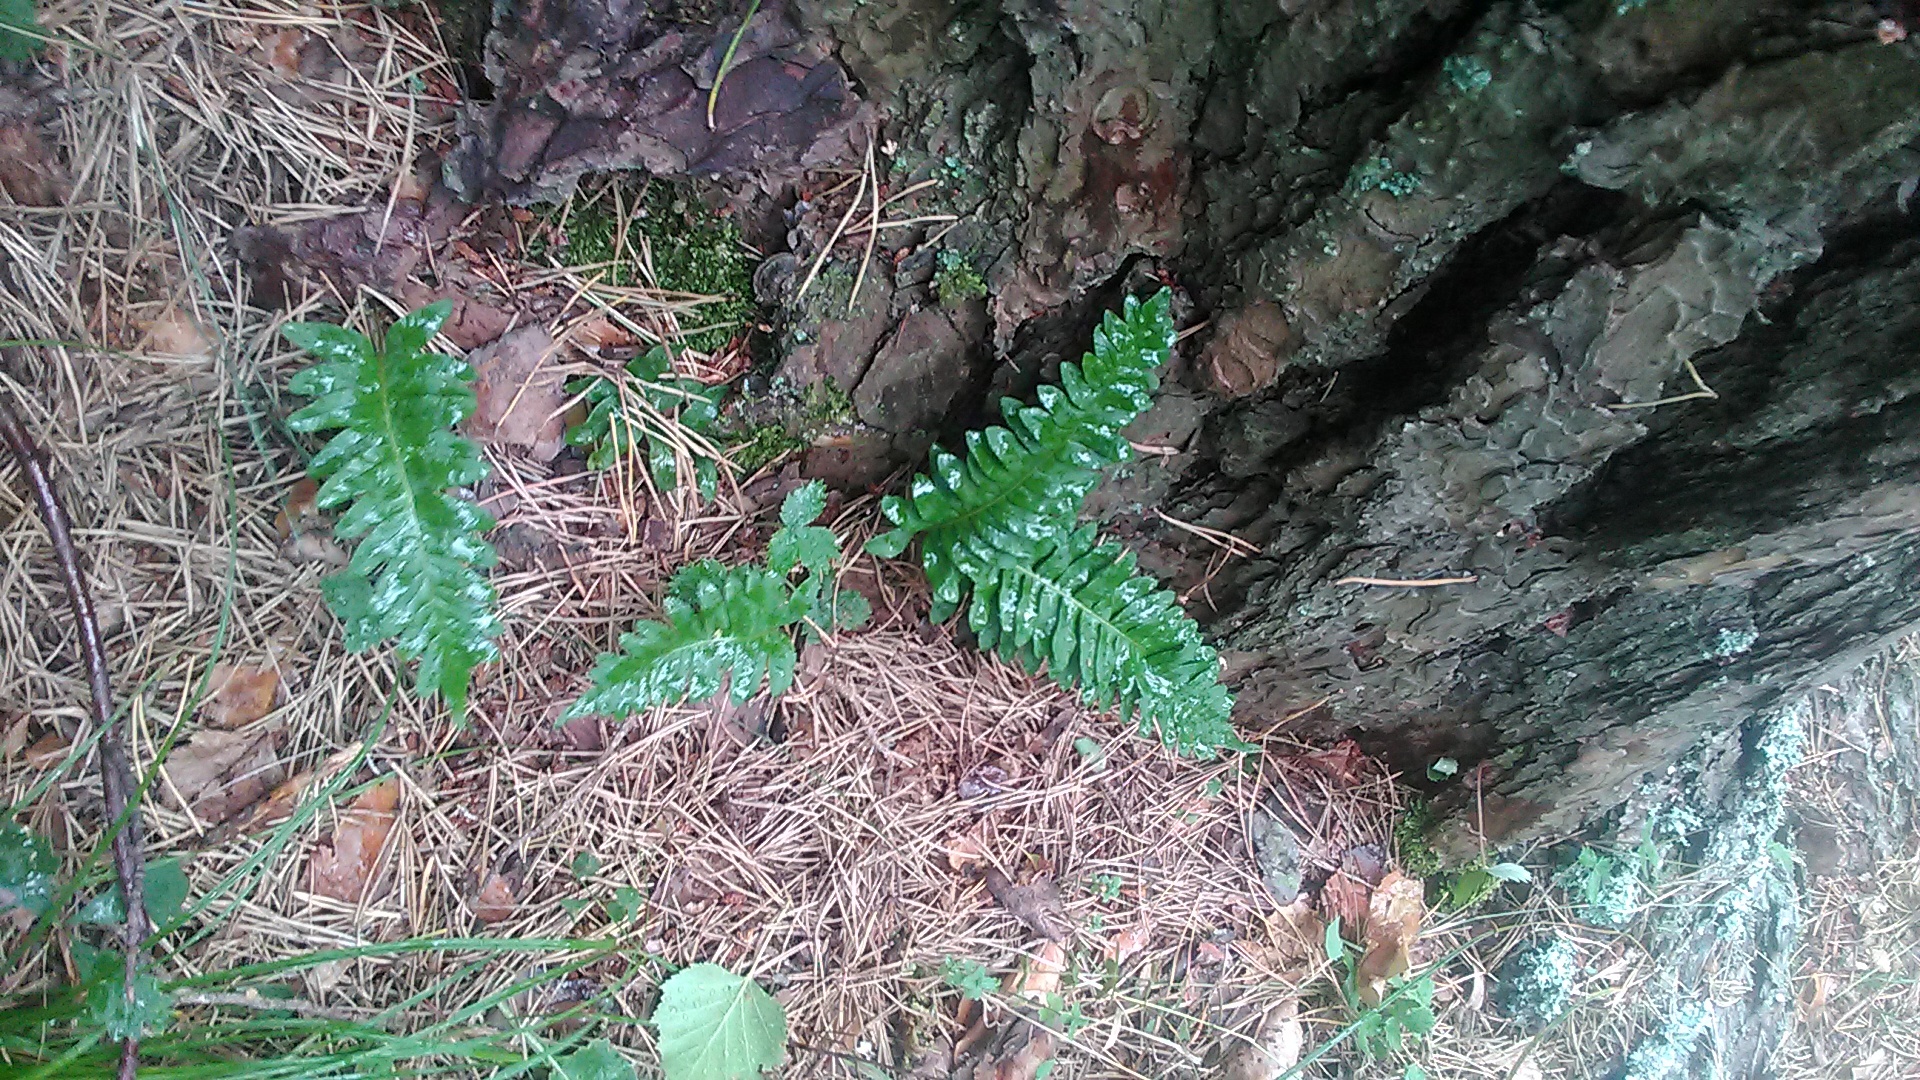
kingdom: Plantae
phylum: Tracheophyta
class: Polypodiopsida
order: Polypodiales
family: Polypodiaceae
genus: Polypodium
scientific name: Polypodium vulgare
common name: Common polypody
